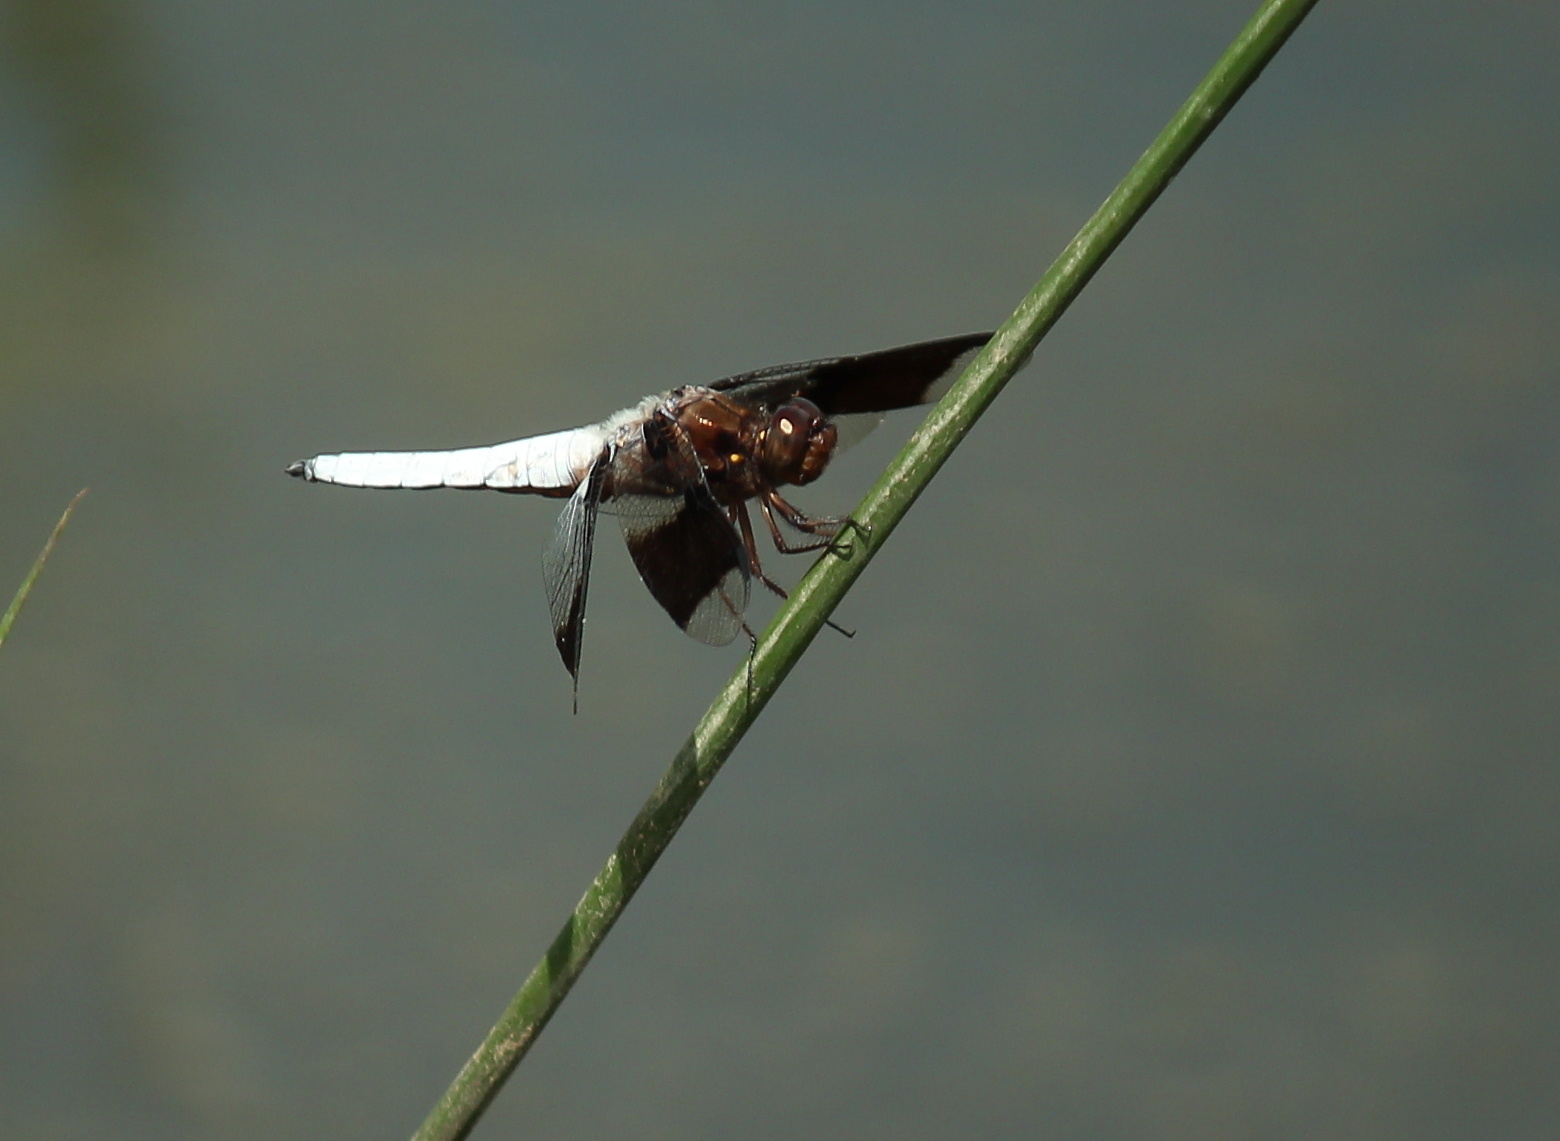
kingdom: Animalia
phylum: Arthropoda
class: Insecta
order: Odonata
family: Libellulidae
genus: Plathemis
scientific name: Plathemis lydia
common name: Common whitetail
